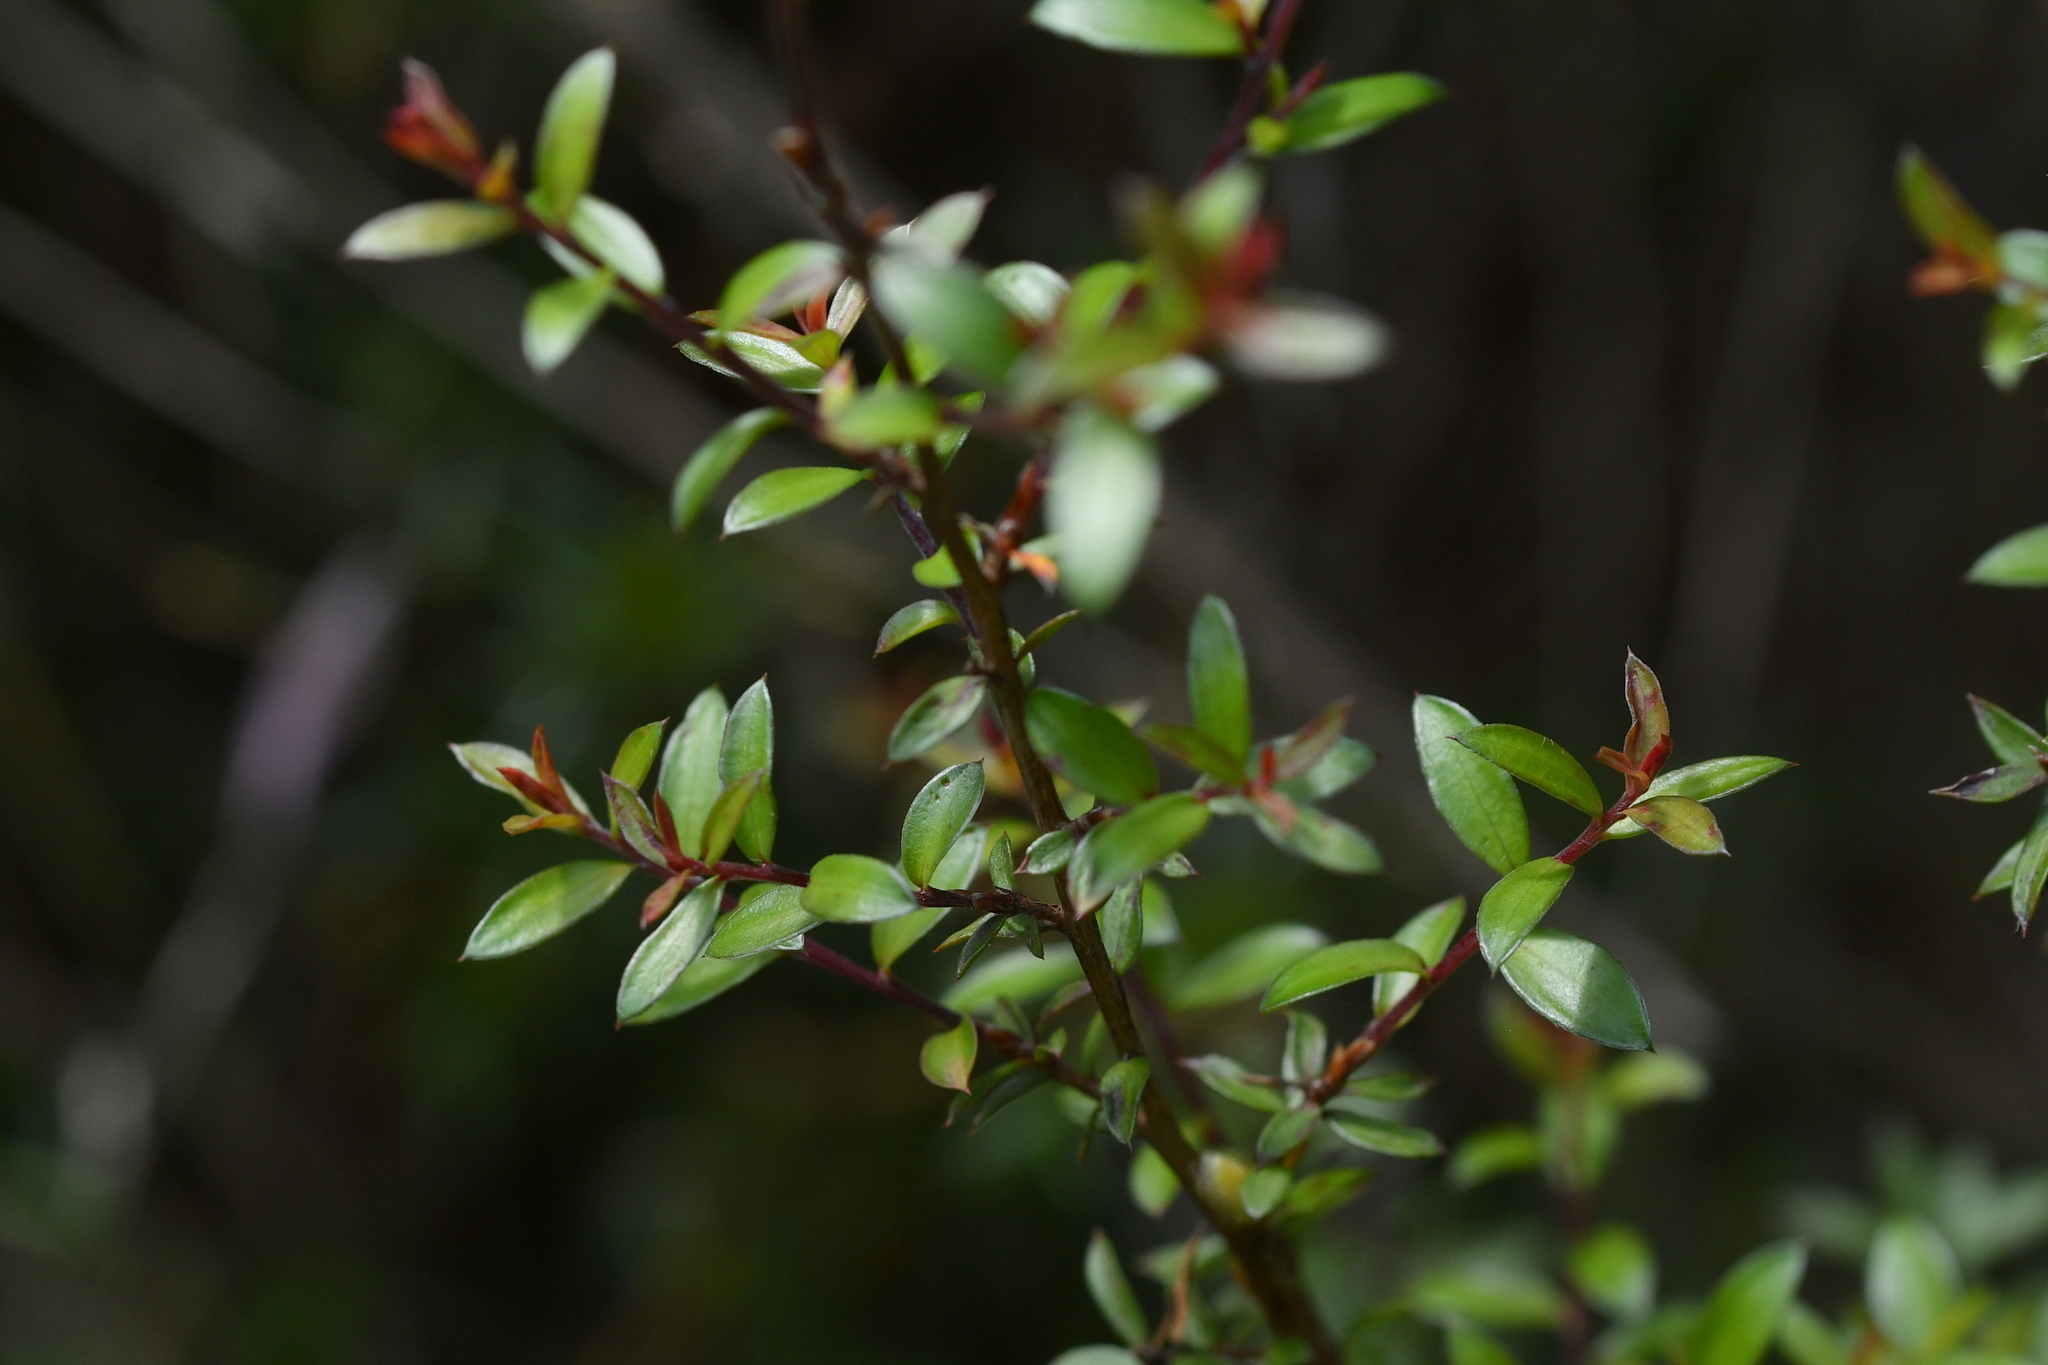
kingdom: Plantae
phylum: Tracheophyta
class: Magnoliopsida
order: Myrtales
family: Myrtaceae
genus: Leptospermum
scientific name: Leptospermum scoparium
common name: Broom tea-tree
